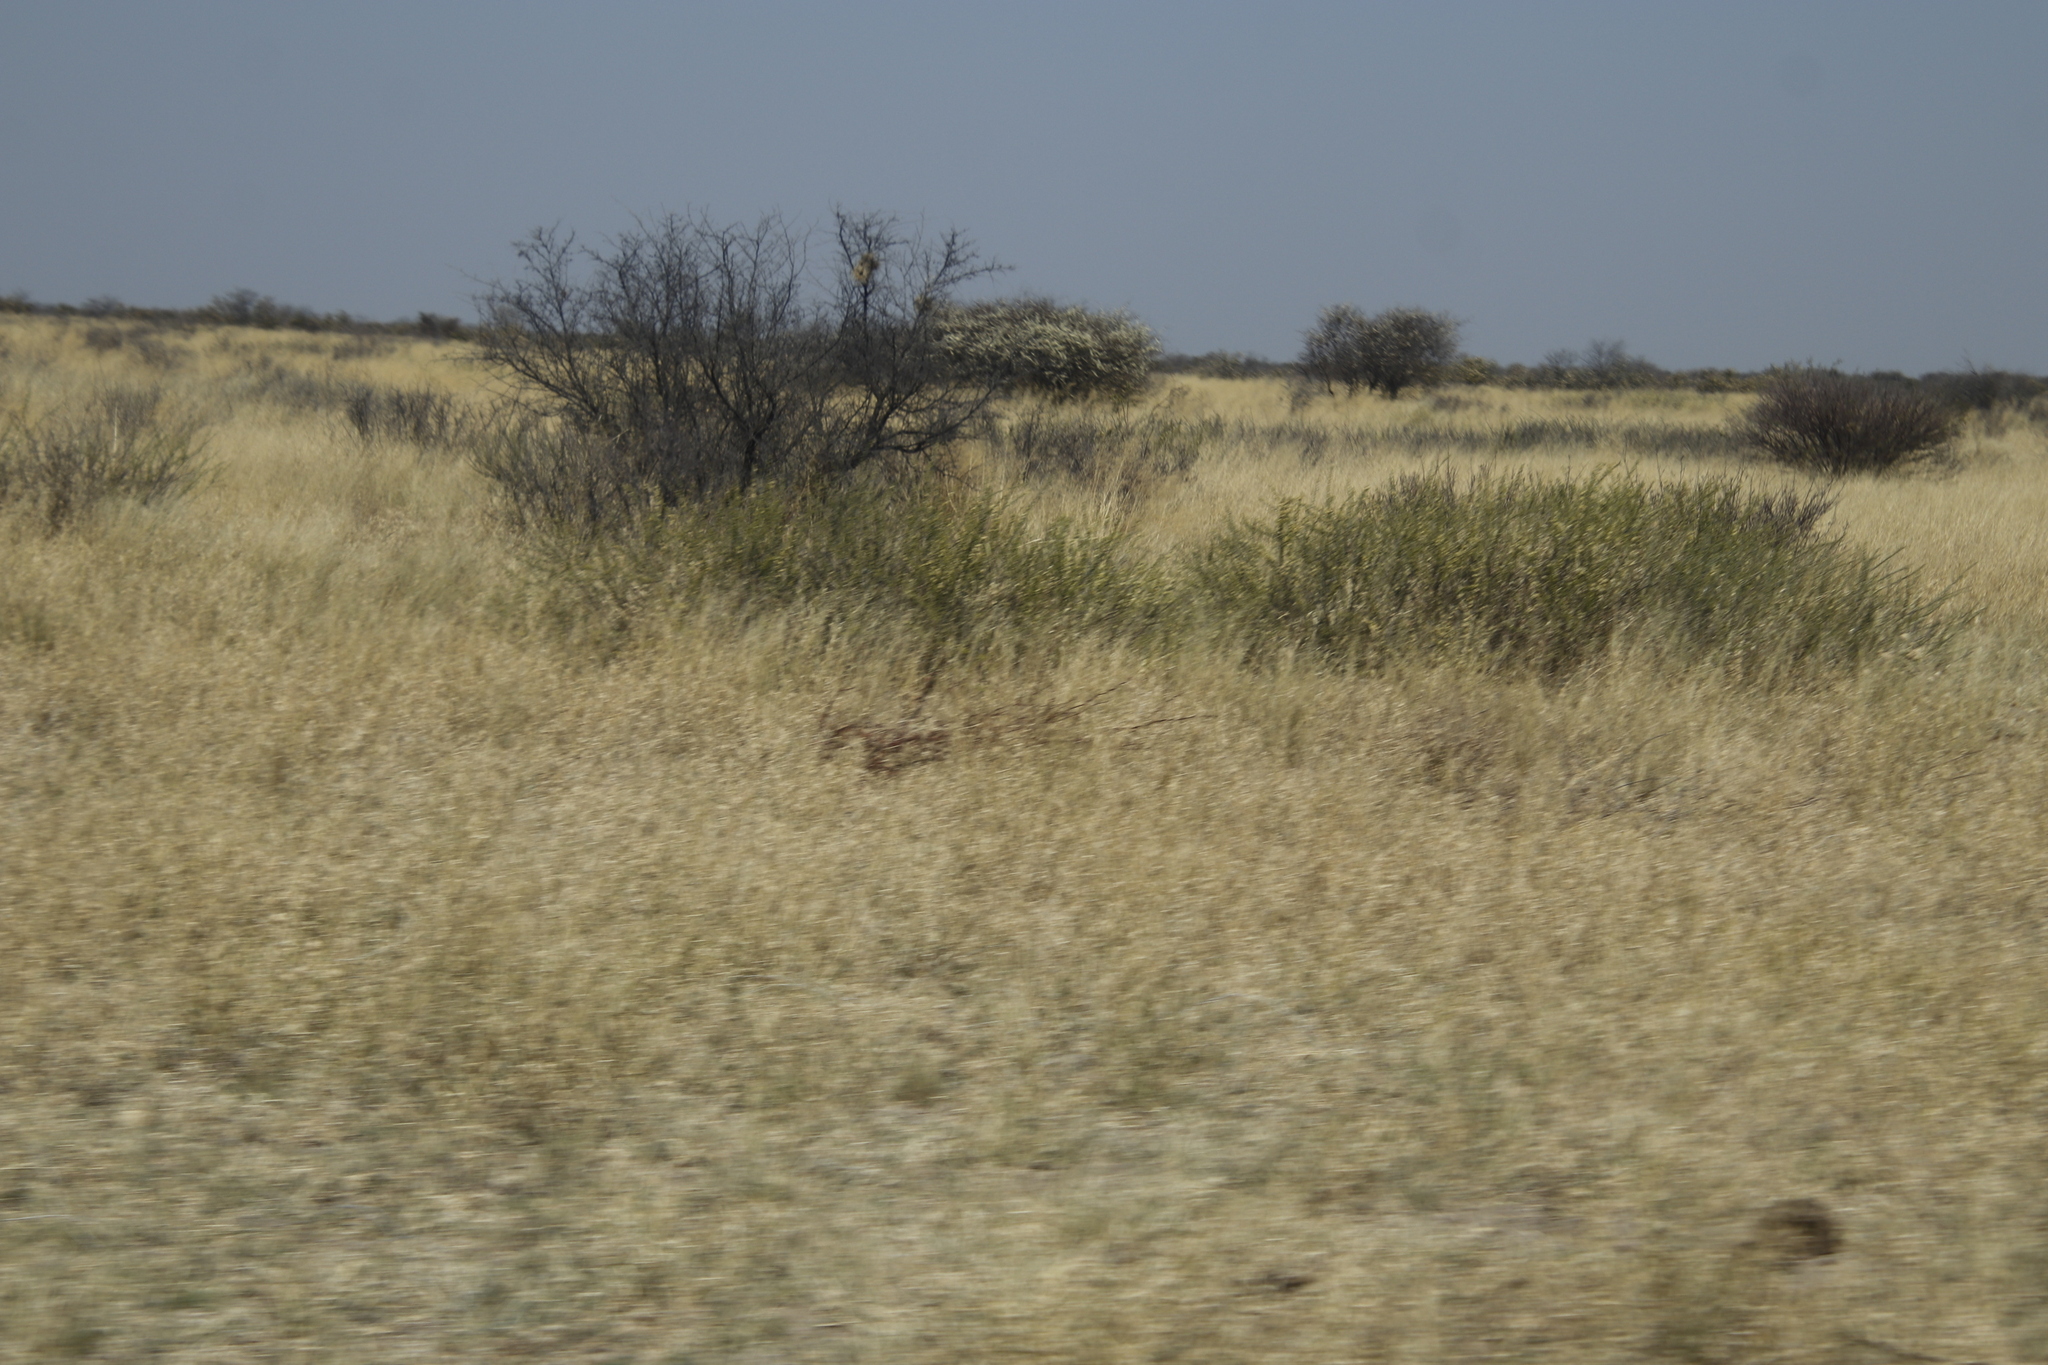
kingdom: Plantae
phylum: Tracheophyta
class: Magnoliopsida
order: Fabales
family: Fabaceae
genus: Vachellia
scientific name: Vachellia hebeclada
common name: Candle thorn
